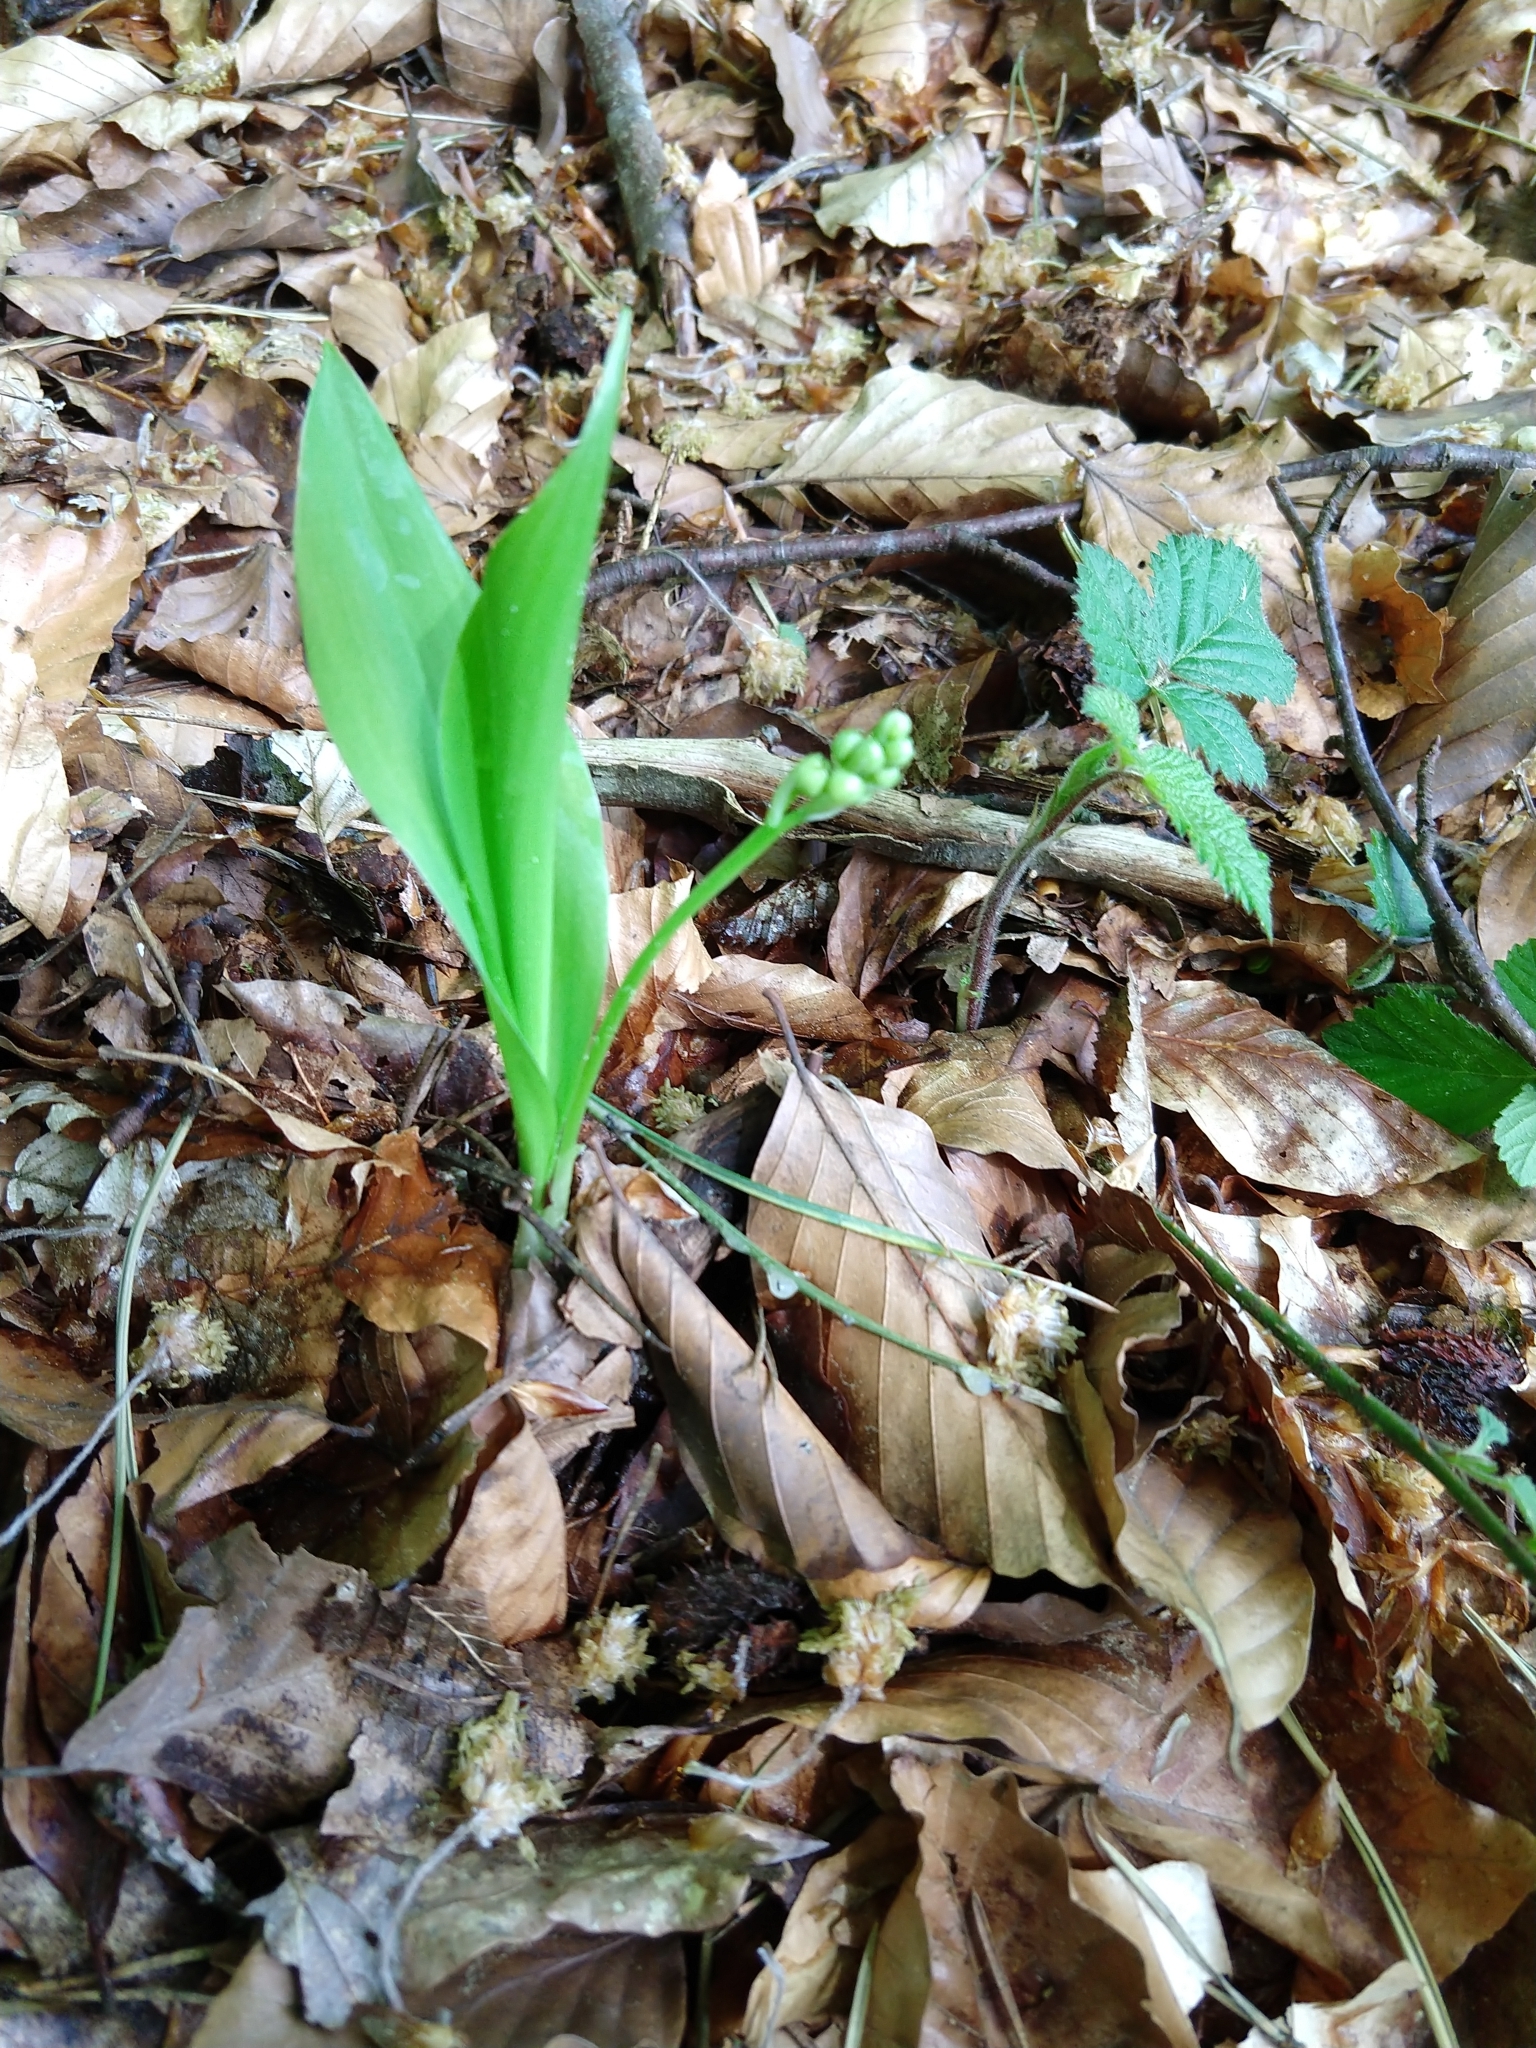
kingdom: Plantae
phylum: Tracheophyta
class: Liliopsida
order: Asparagales
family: Asparagaceae
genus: Convallaria
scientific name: Convallaria majalis
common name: Lily-of-the-valley
